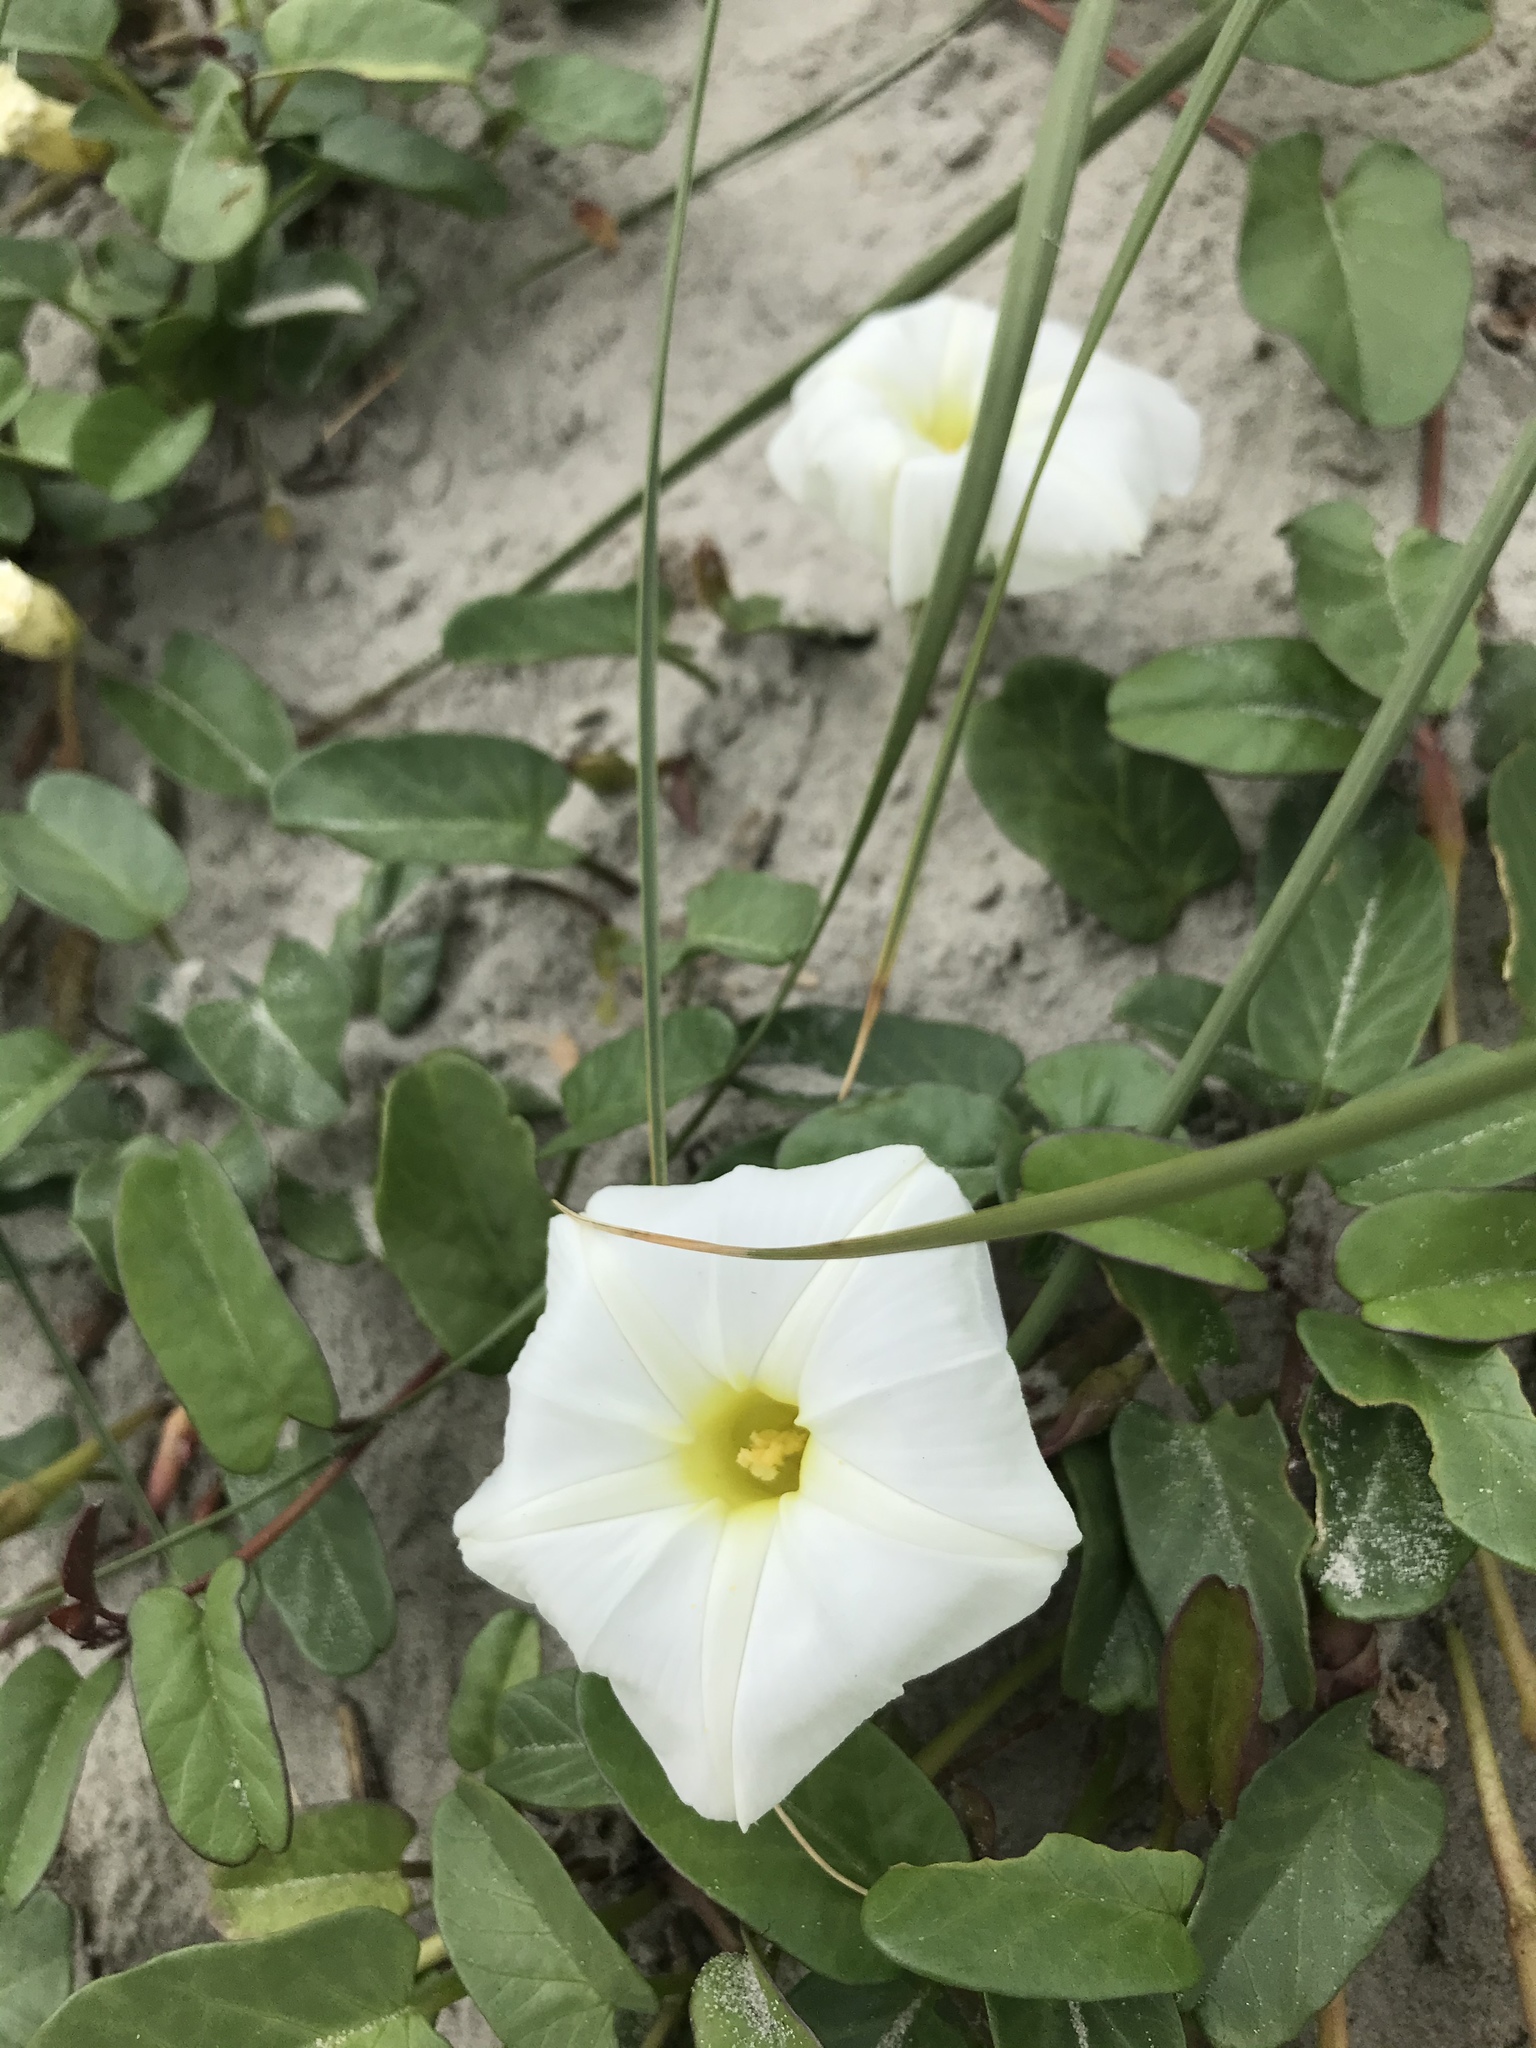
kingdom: Plantae
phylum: Tracheophyta
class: Magnoliopsida
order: Solanales
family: Convolvulaceae
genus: Ipomoea
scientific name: Ipomoea imperati
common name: Fiddle-leaf morning-glory
